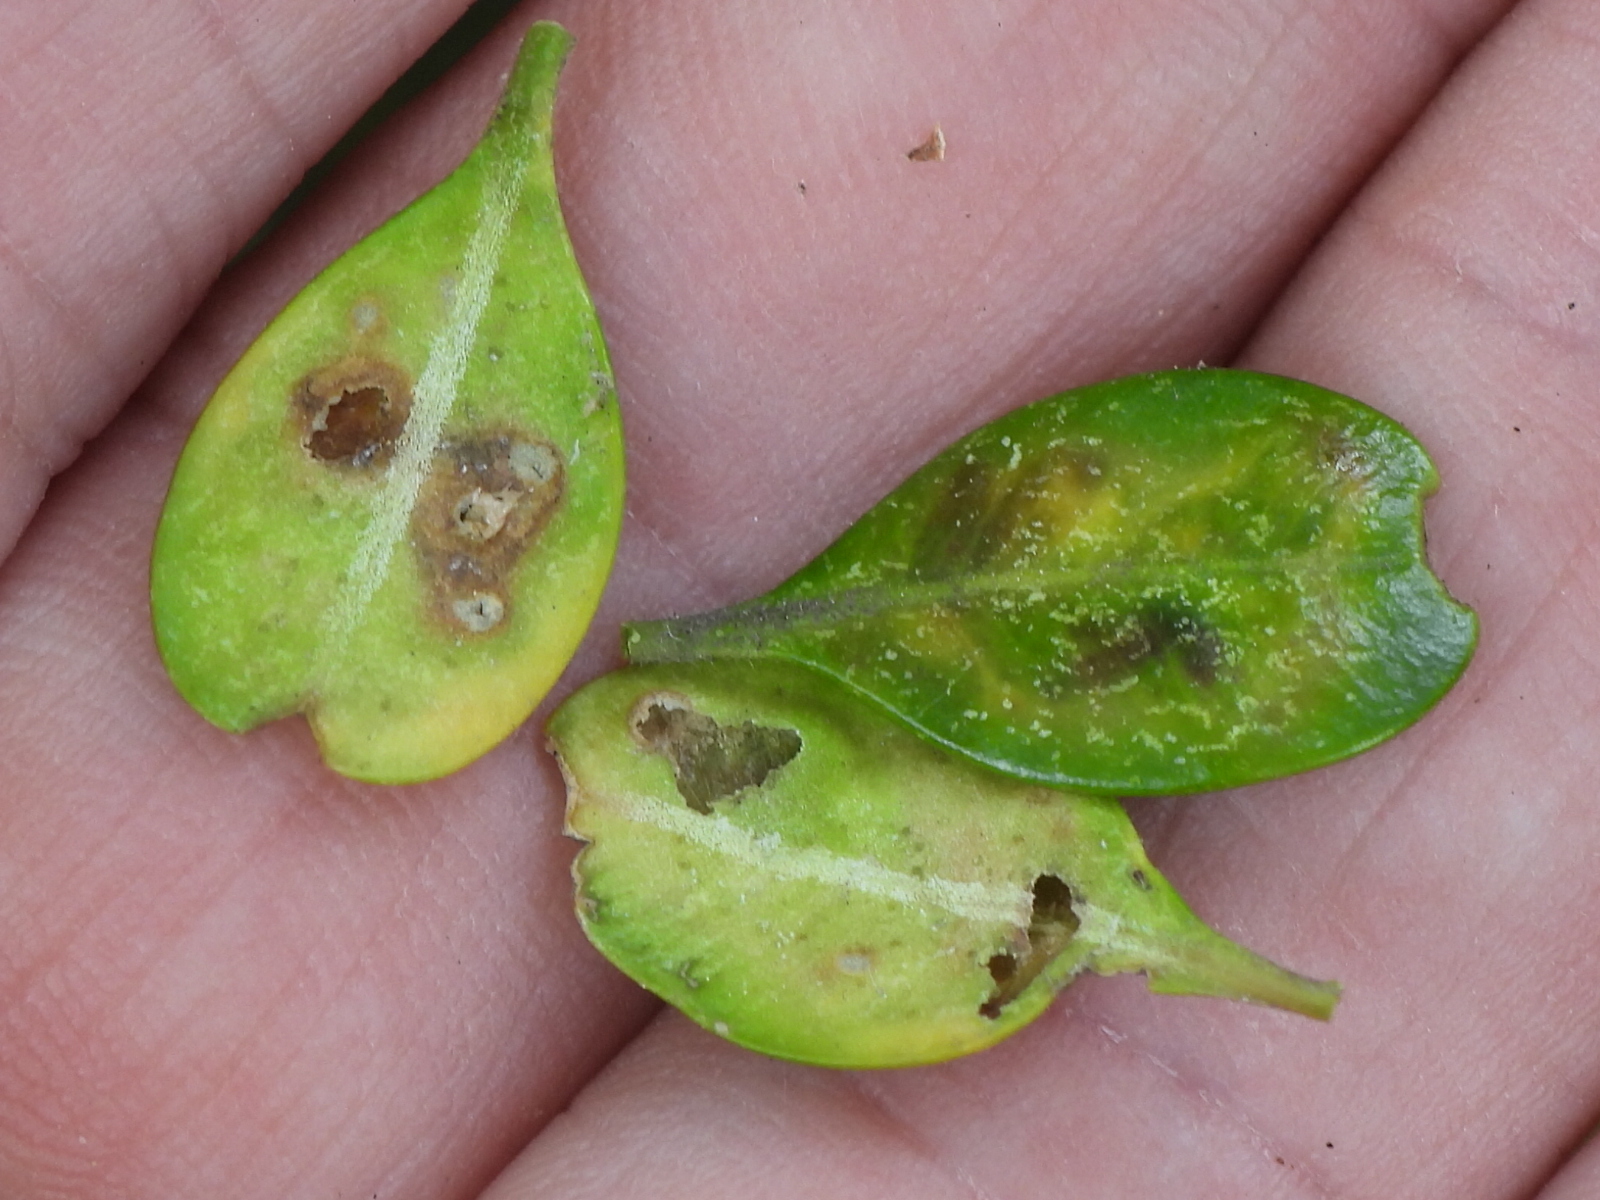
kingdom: Animalia
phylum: Arthropoda
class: Insecta
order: Diptera
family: Cecidomyiidae
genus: Monarthropalpus
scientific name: Monarthropalpus flavus
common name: Boxwood leafminer
